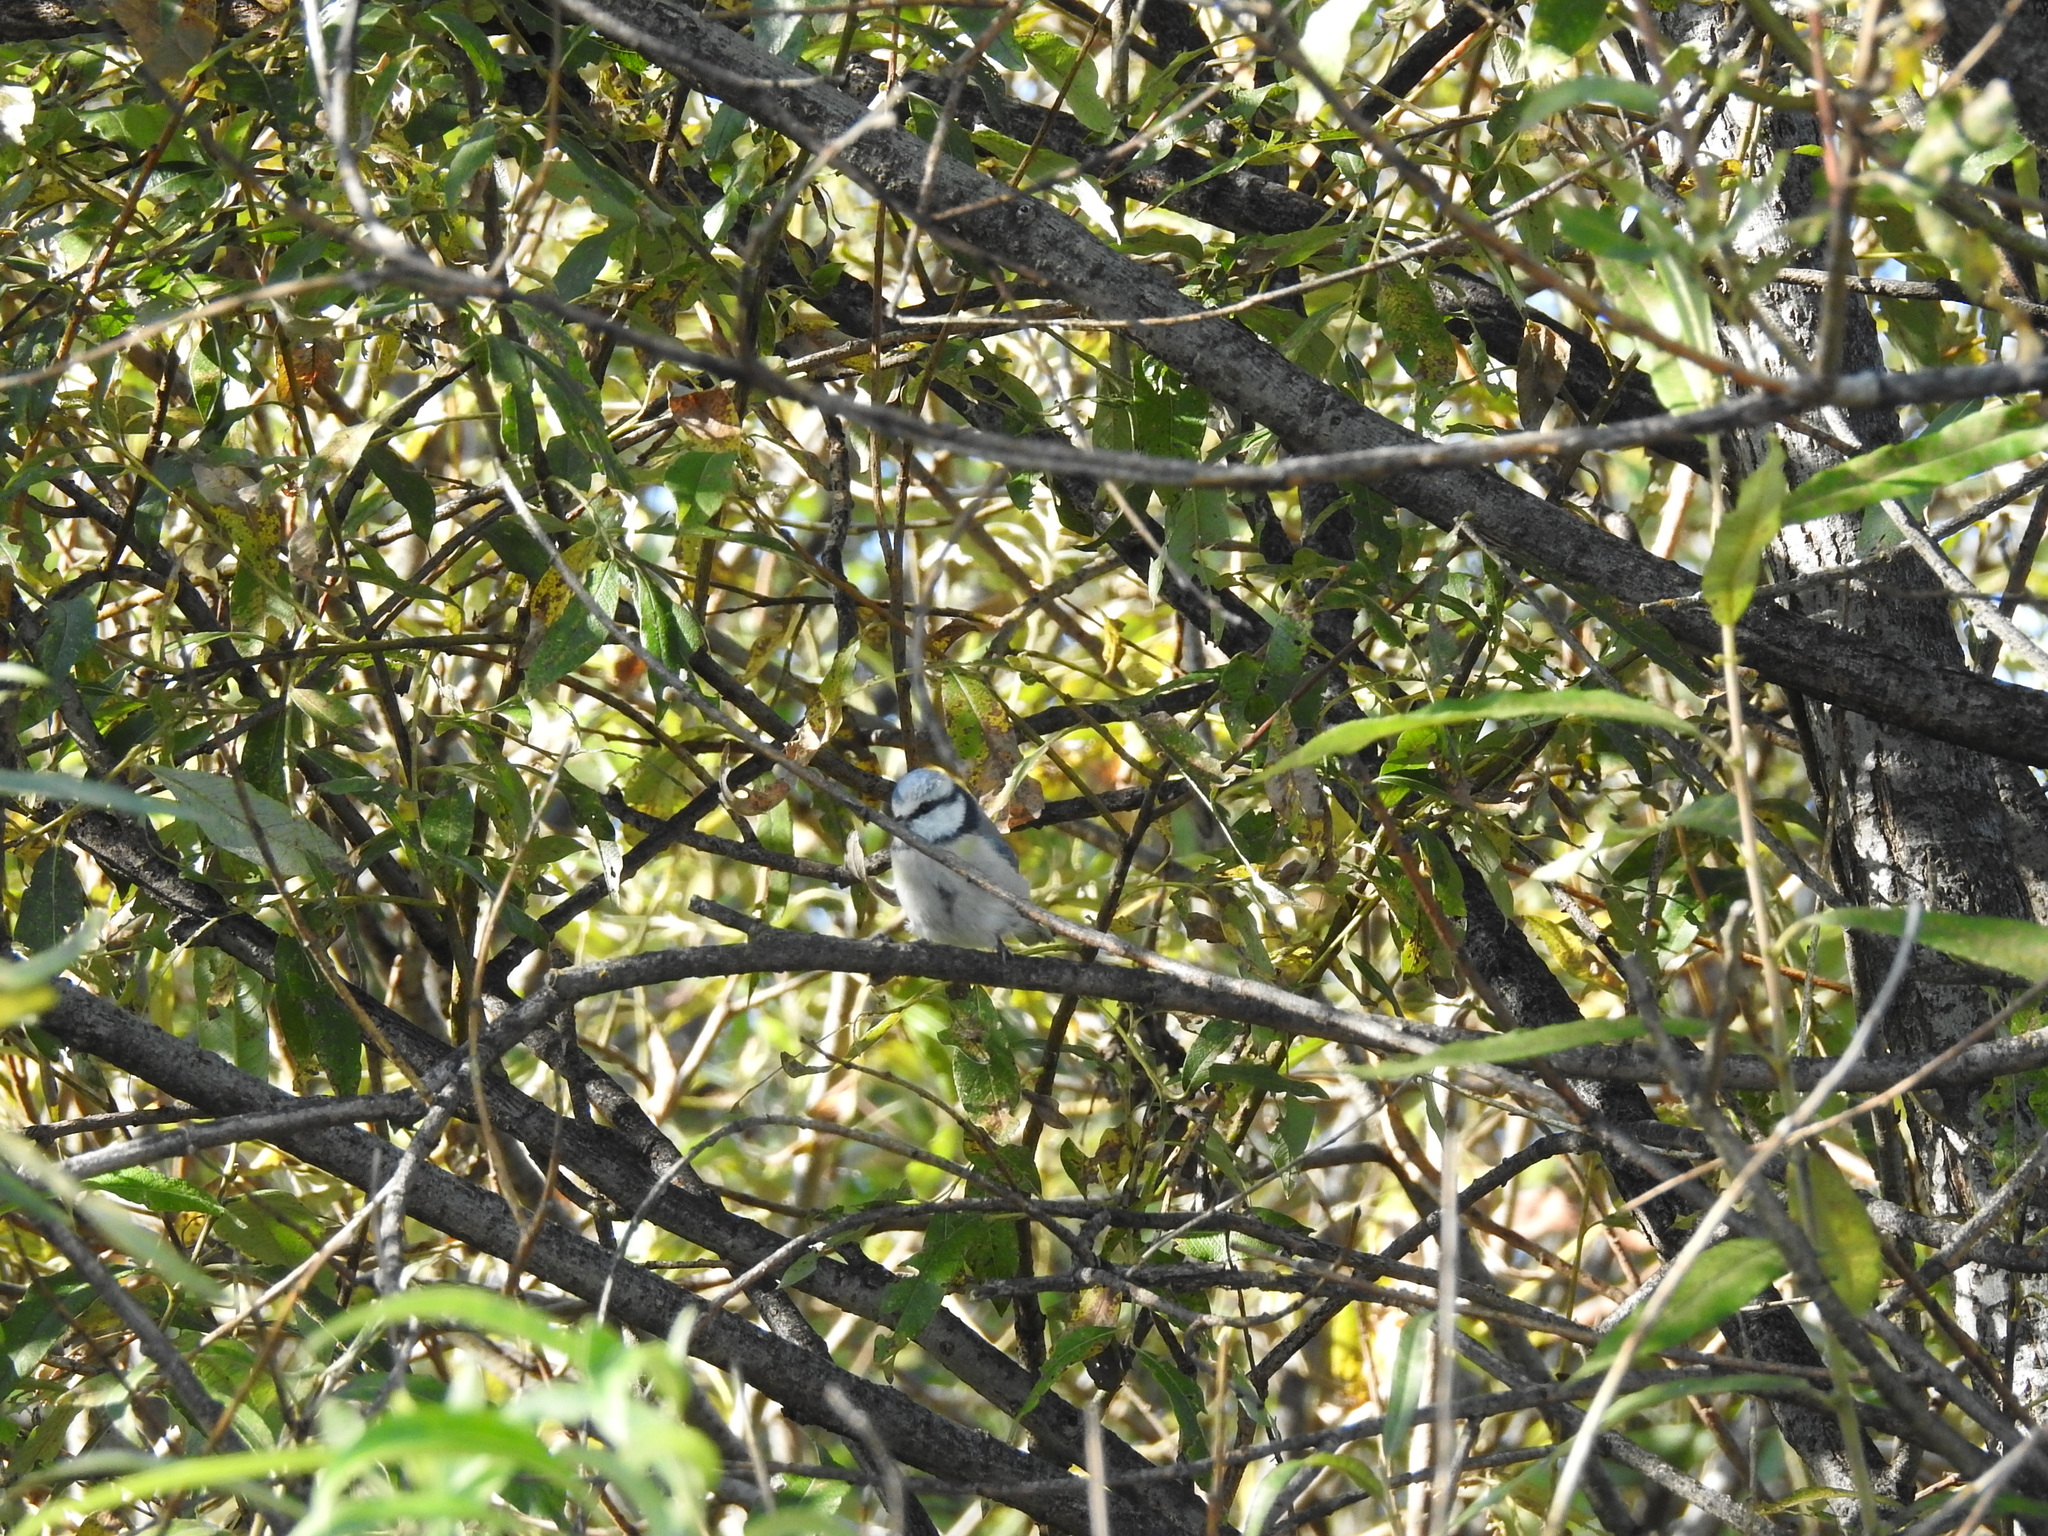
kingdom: Animalia
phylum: Chordata
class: Aves
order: Passeriformes
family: Paridae
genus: Cyanistes
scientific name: Cyanistes caeruleus
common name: Eurasian blue tit
